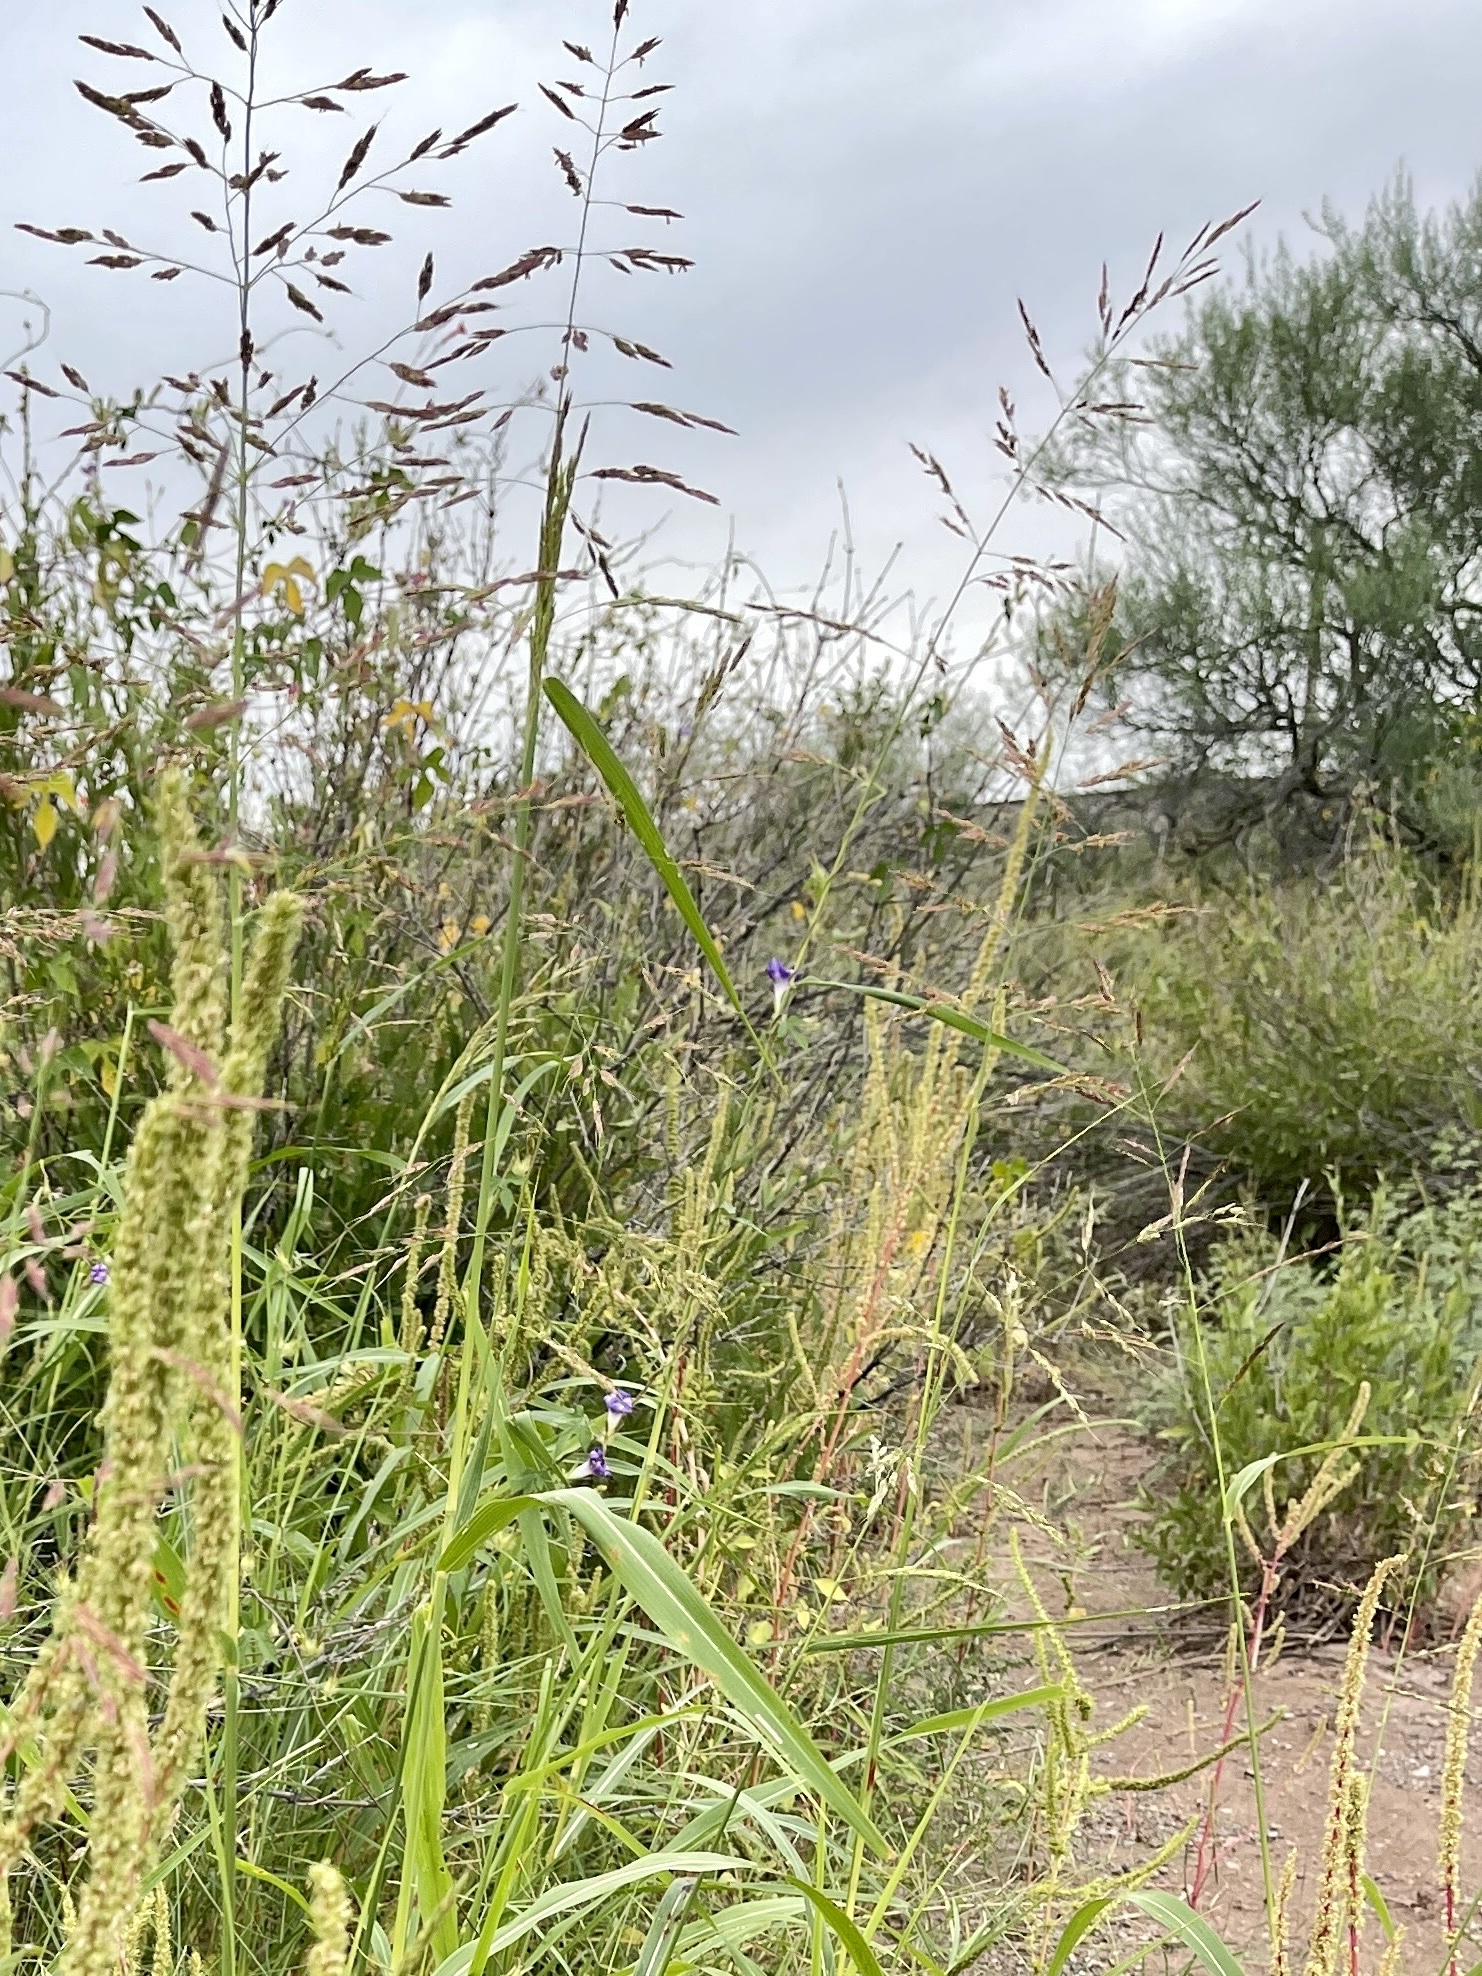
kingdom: Plantae
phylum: Tracheophyta
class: Liliopsida
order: Poales
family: Poaceae
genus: Sorghum
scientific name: Sorghum halepense
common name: Johnson-grass
